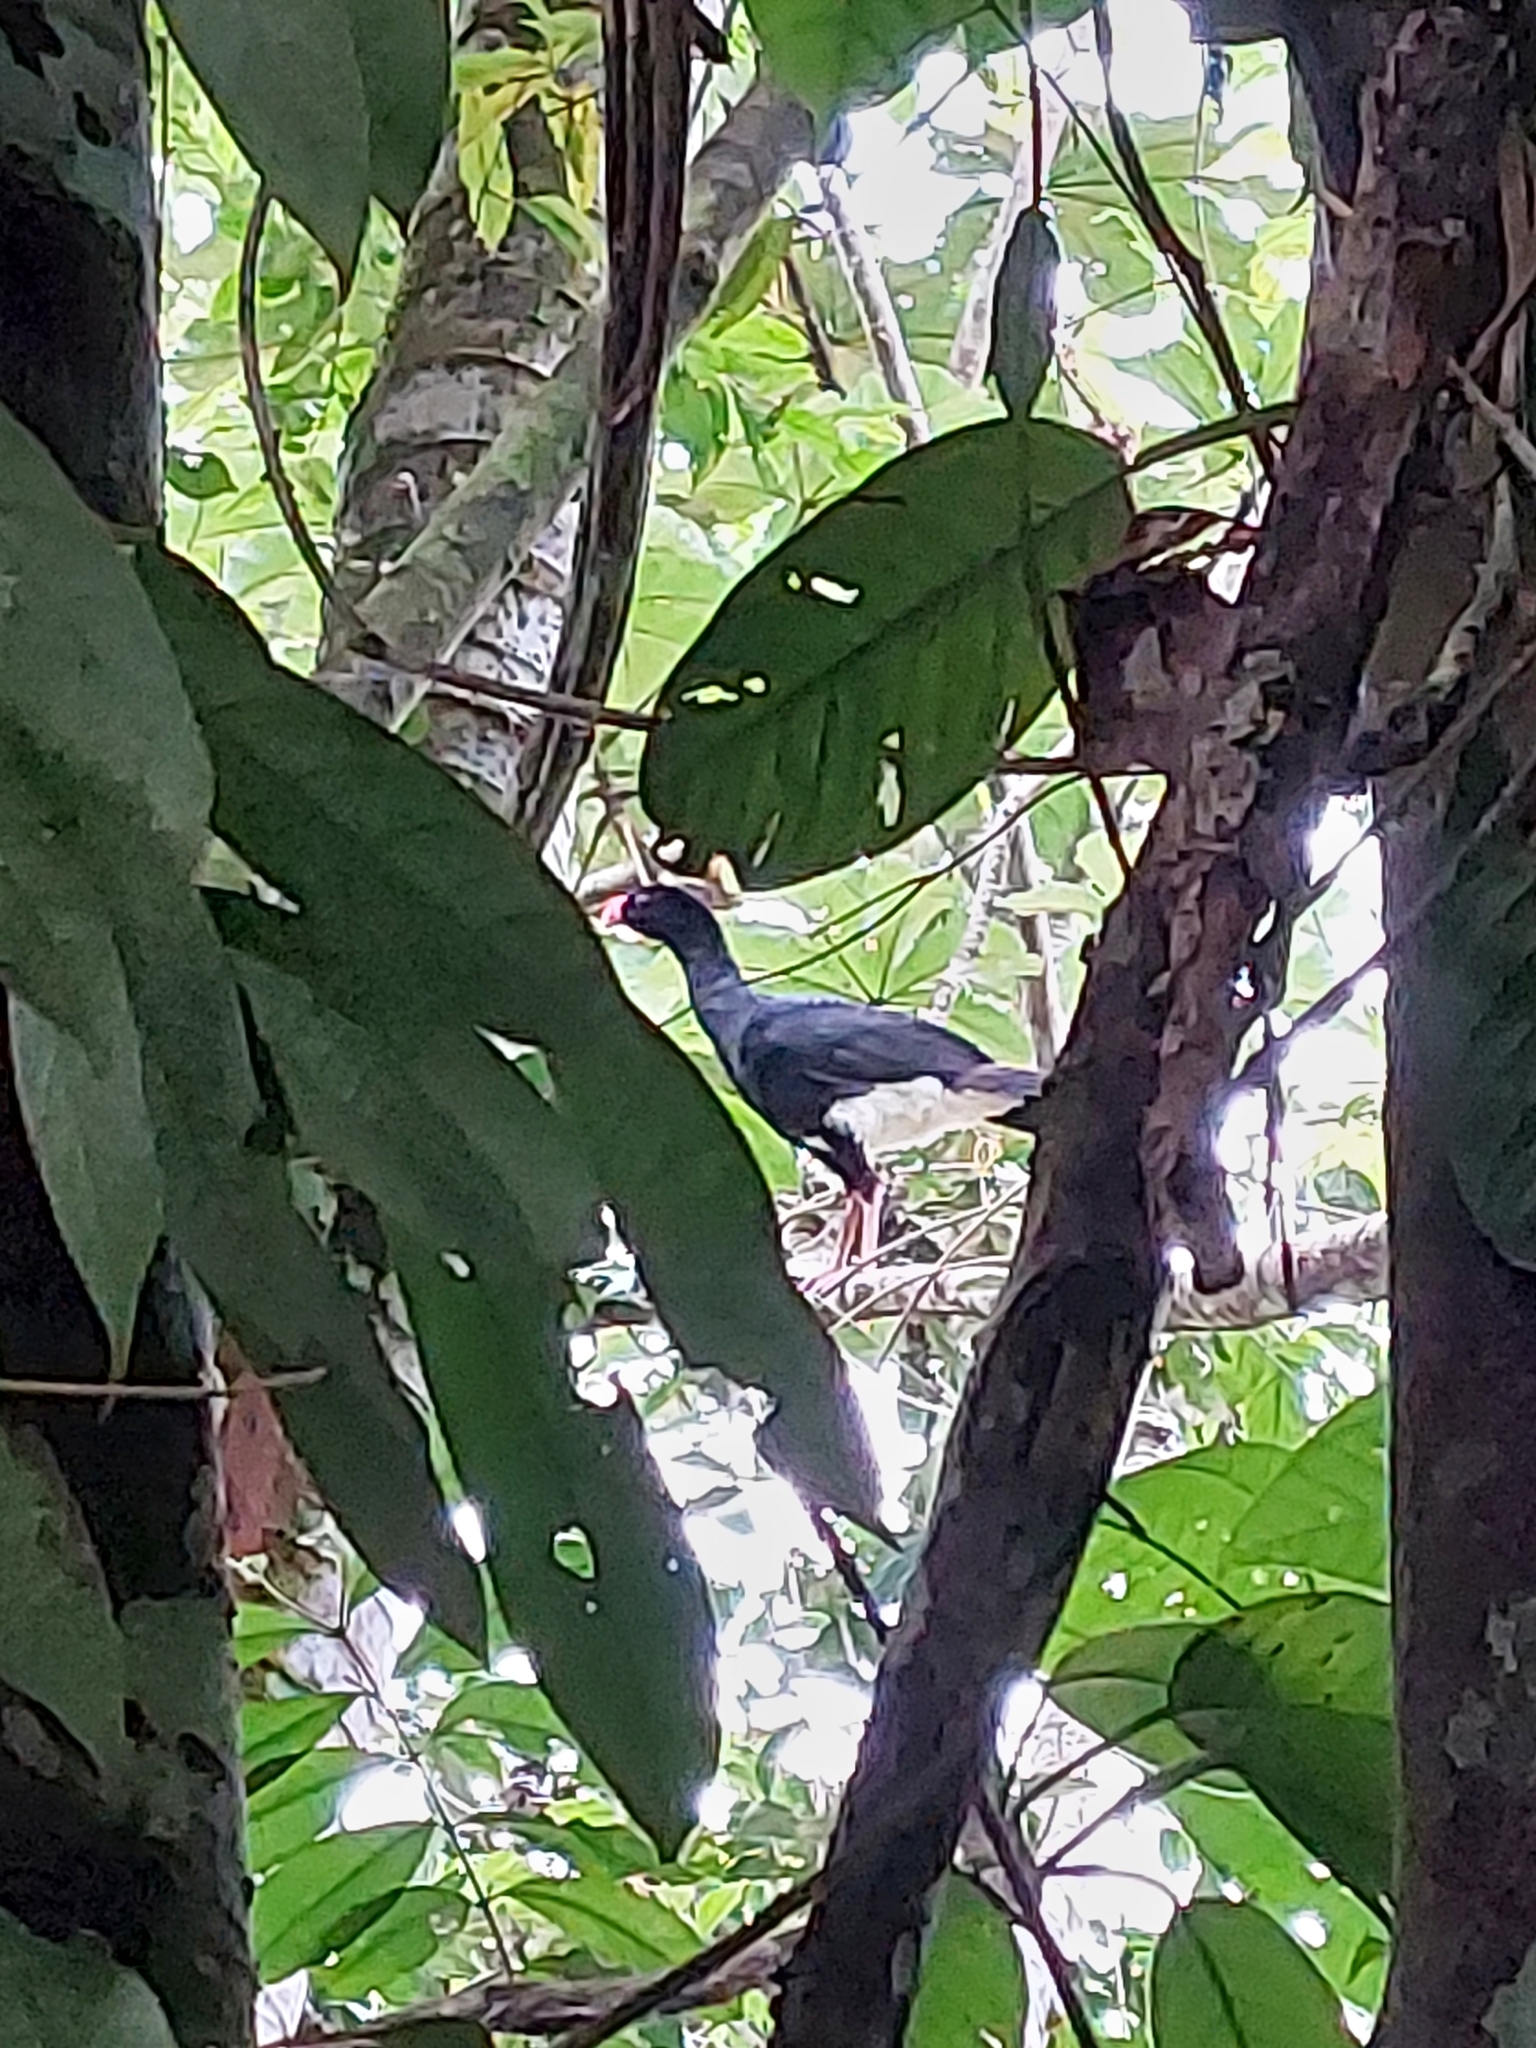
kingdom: Animalia
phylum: Chordata
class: Aves
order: Galliformes
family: Cracidae
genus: Mitu
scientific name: Mitu salvini
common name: Salvin's curassow
